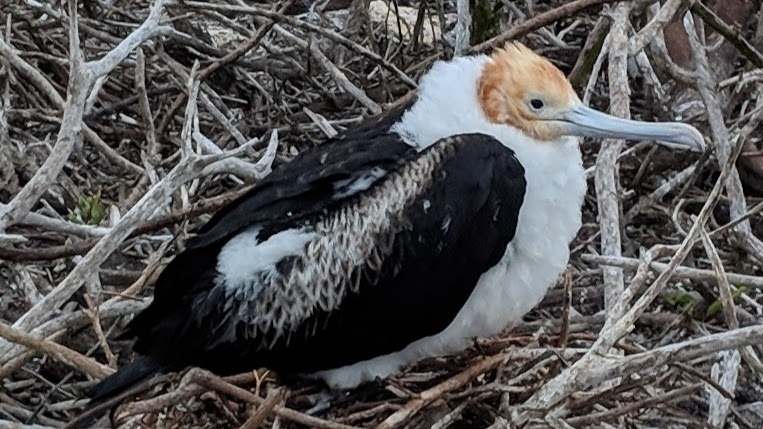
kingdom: Animalia
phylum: Chordata
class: Aves
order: Suliformes
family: Fregatidae
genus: Fregata
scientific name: Fregata minor
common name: Great frigatebird
